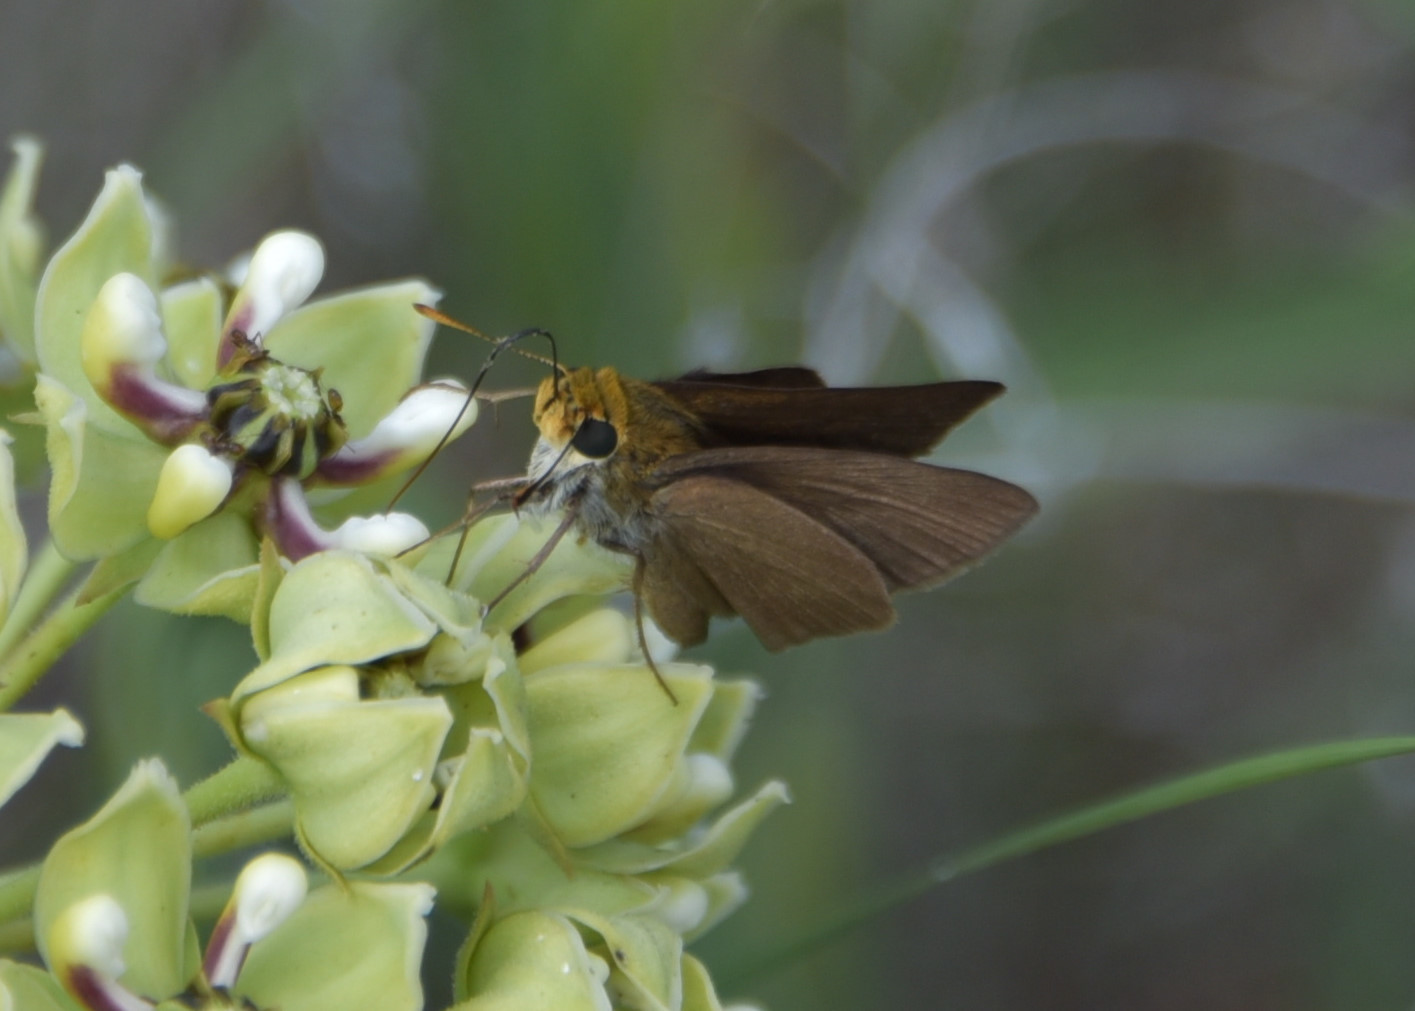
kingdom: Animalia
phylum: Arthropoda
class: Insecta
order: Lepidoptera
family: Hesperiidae
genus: Euphyes
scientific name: Euphyes vestris
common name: Dun skipper
